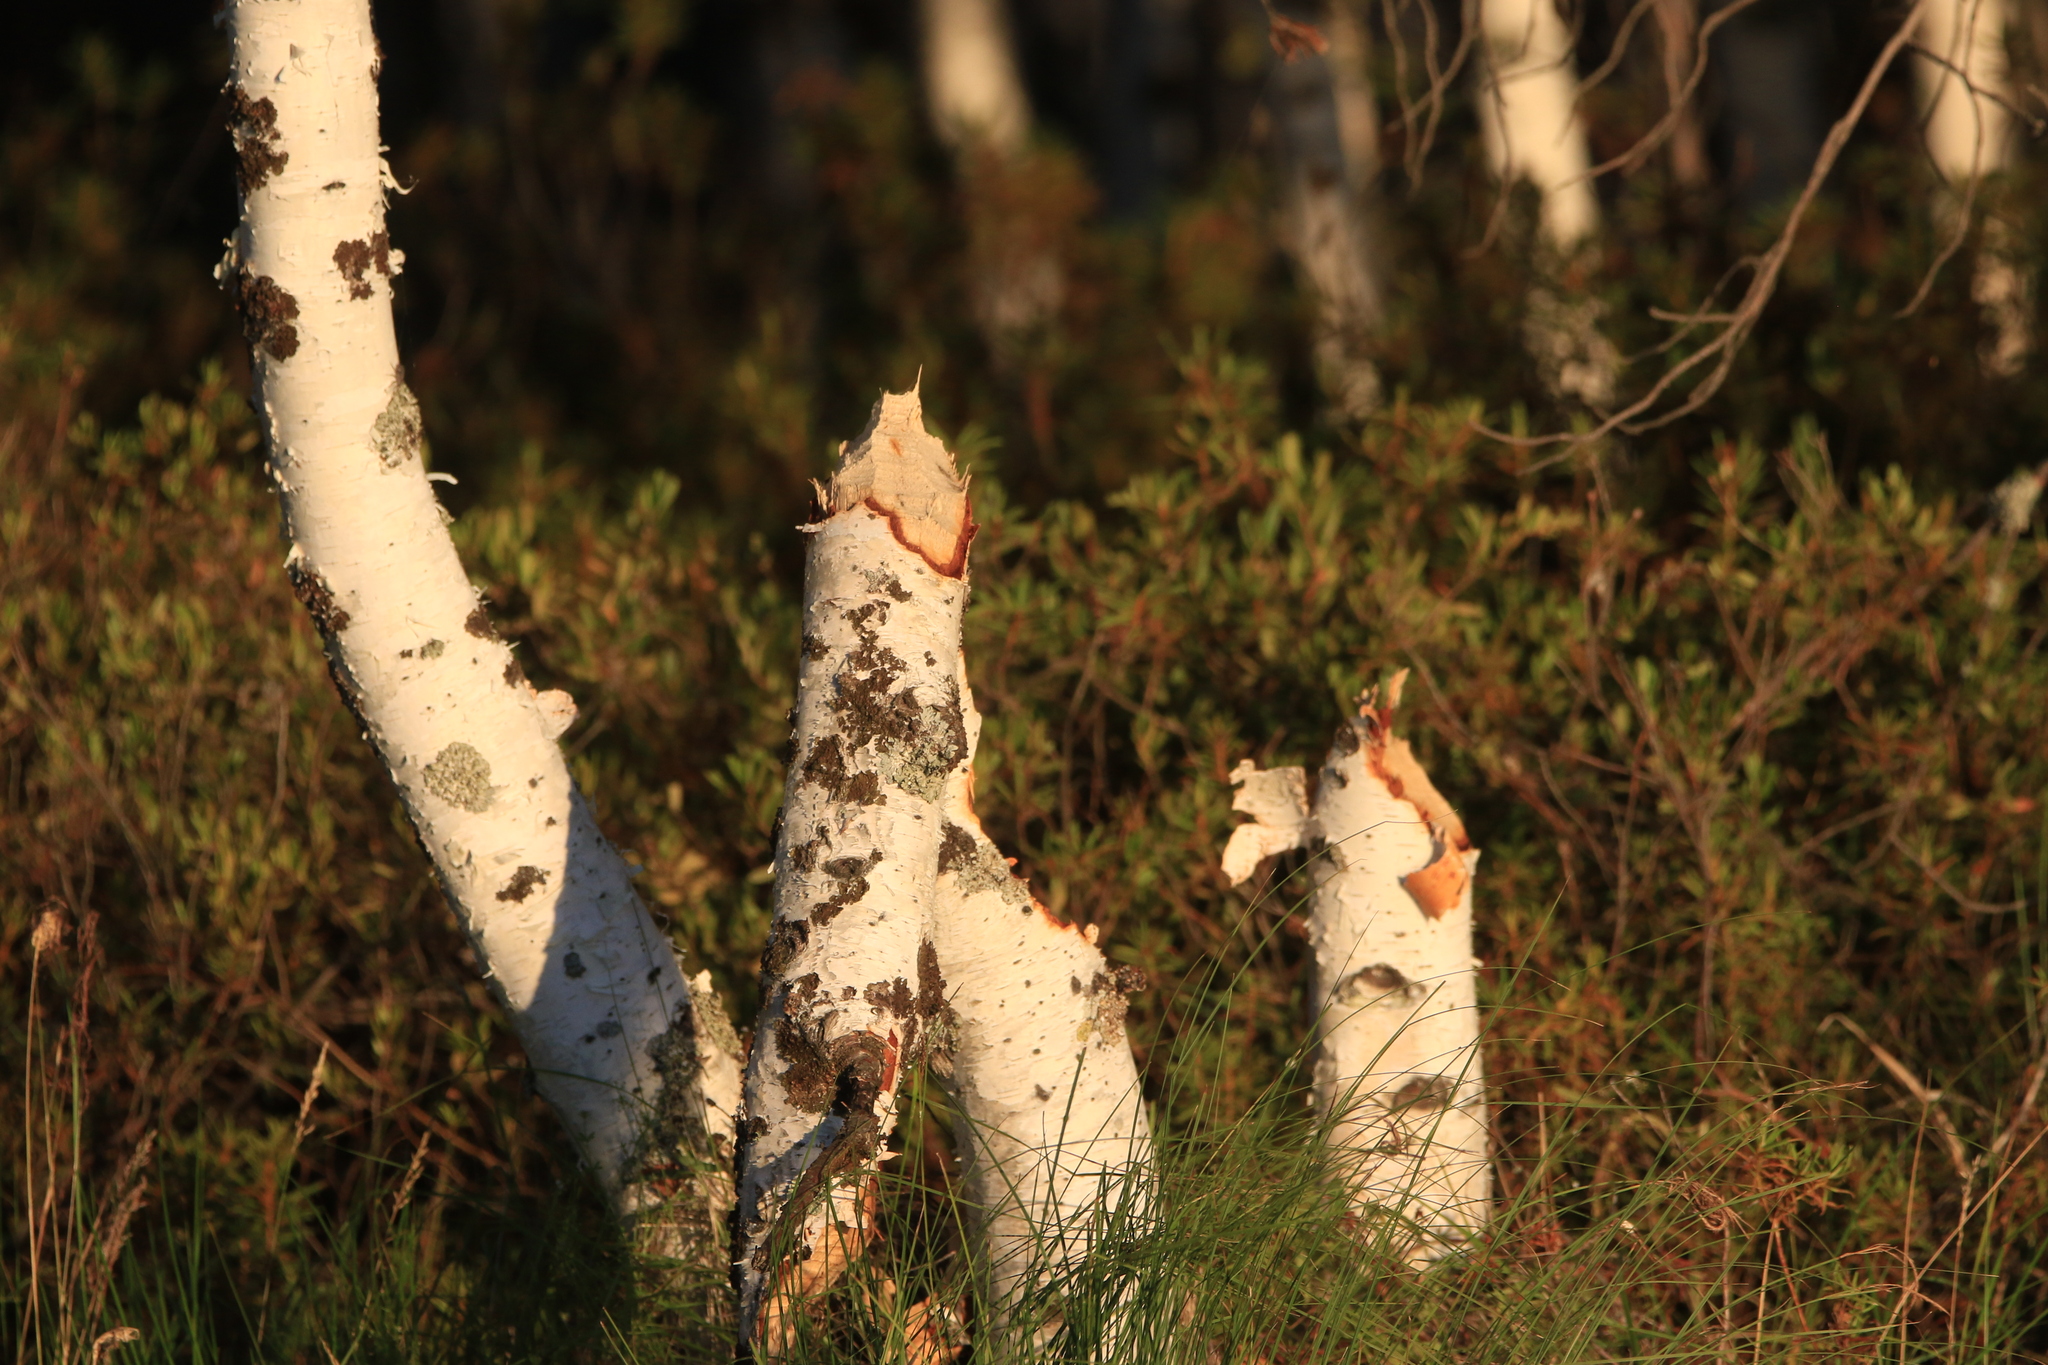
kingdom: Animalia
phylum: Chordata
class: Mammalia
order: Rodentia
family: Castoridae
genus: Castor
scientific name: Castor fiber
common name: Eurasian beaver
